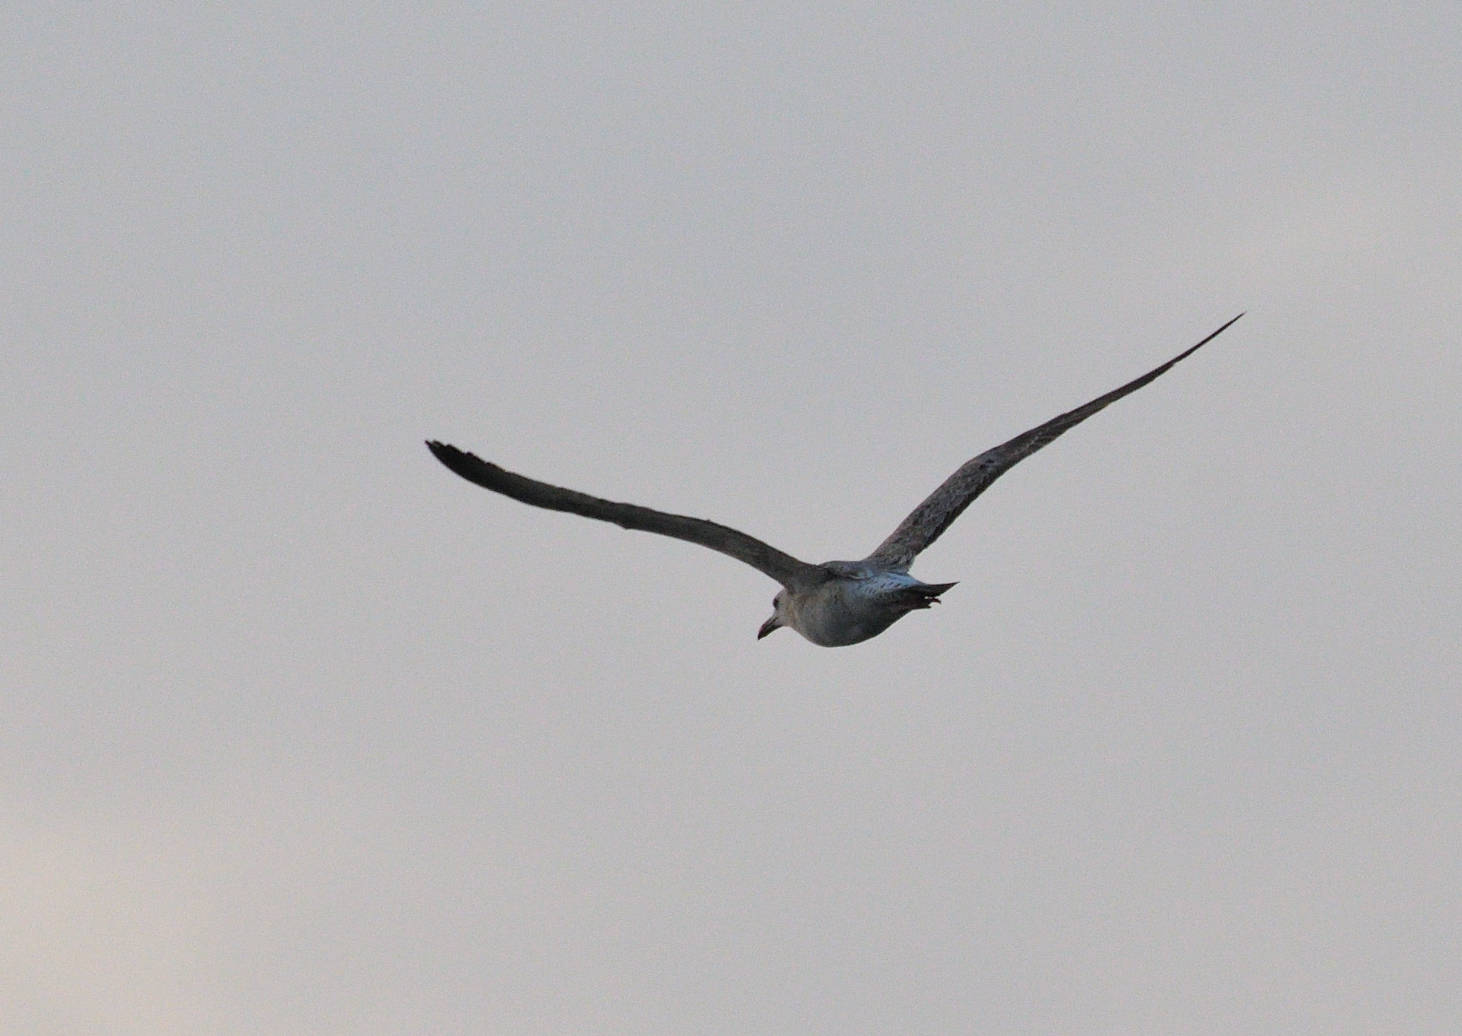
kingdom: Animalia
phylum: Chordata
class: Aves
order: Charadriiformes
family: Laridae
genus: Larus
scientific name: Larus fuscus
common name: Lesser black-backed gull
